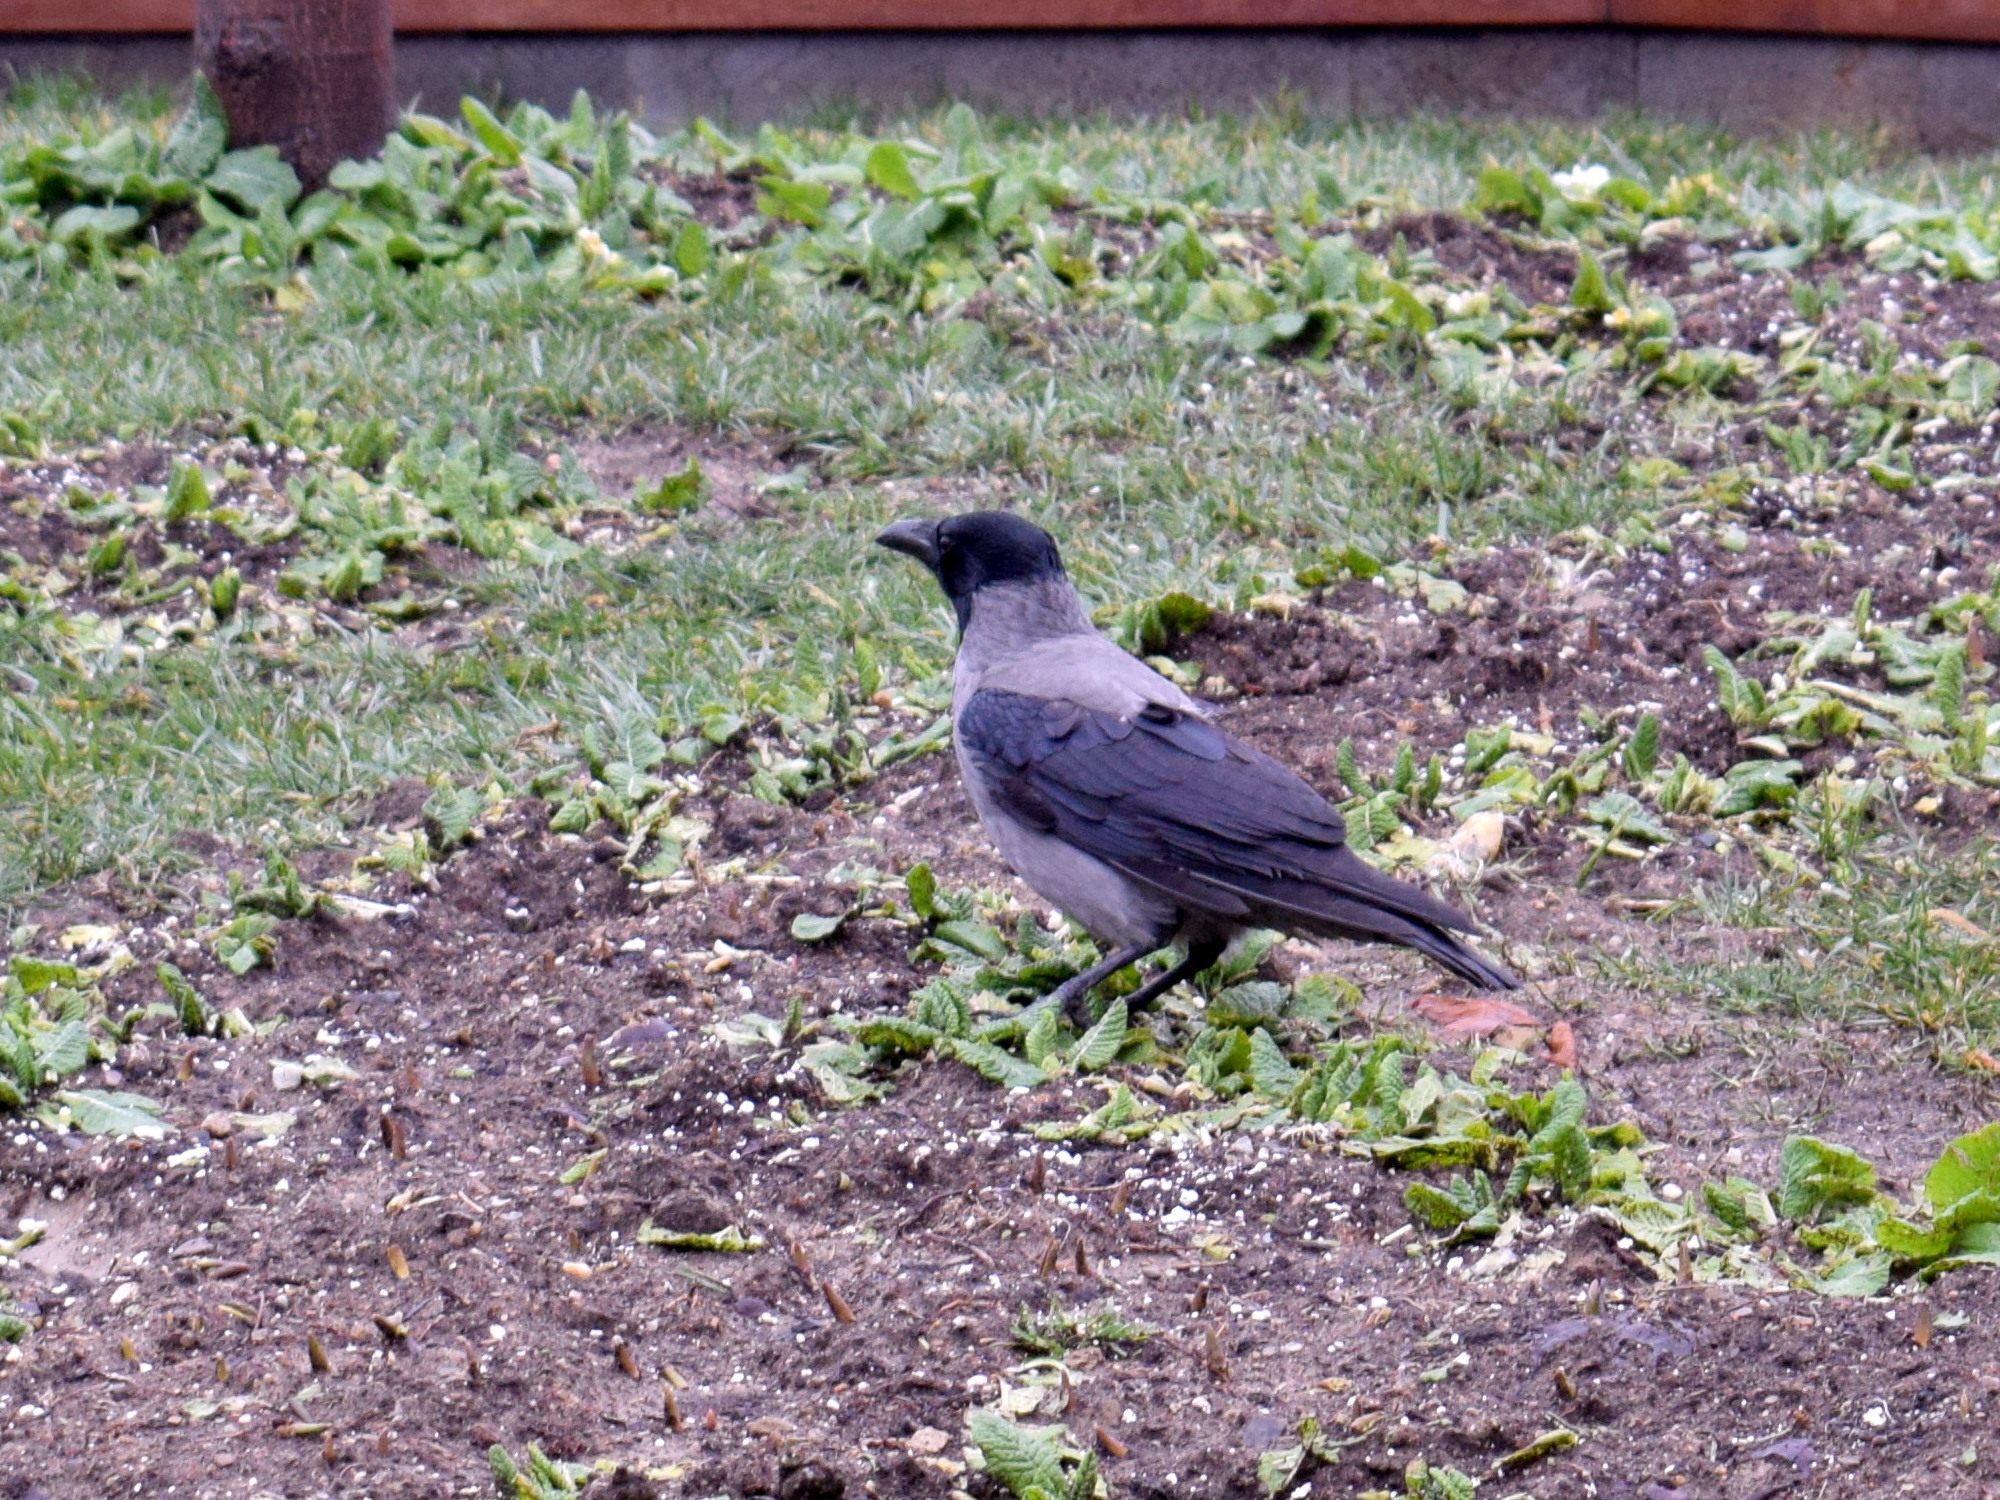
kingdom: Animalia
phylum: Chordata
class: Aves
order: Passeriformes
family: Corvidae
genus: Corvus
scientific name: Corvus cornix
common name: Hooded crow
